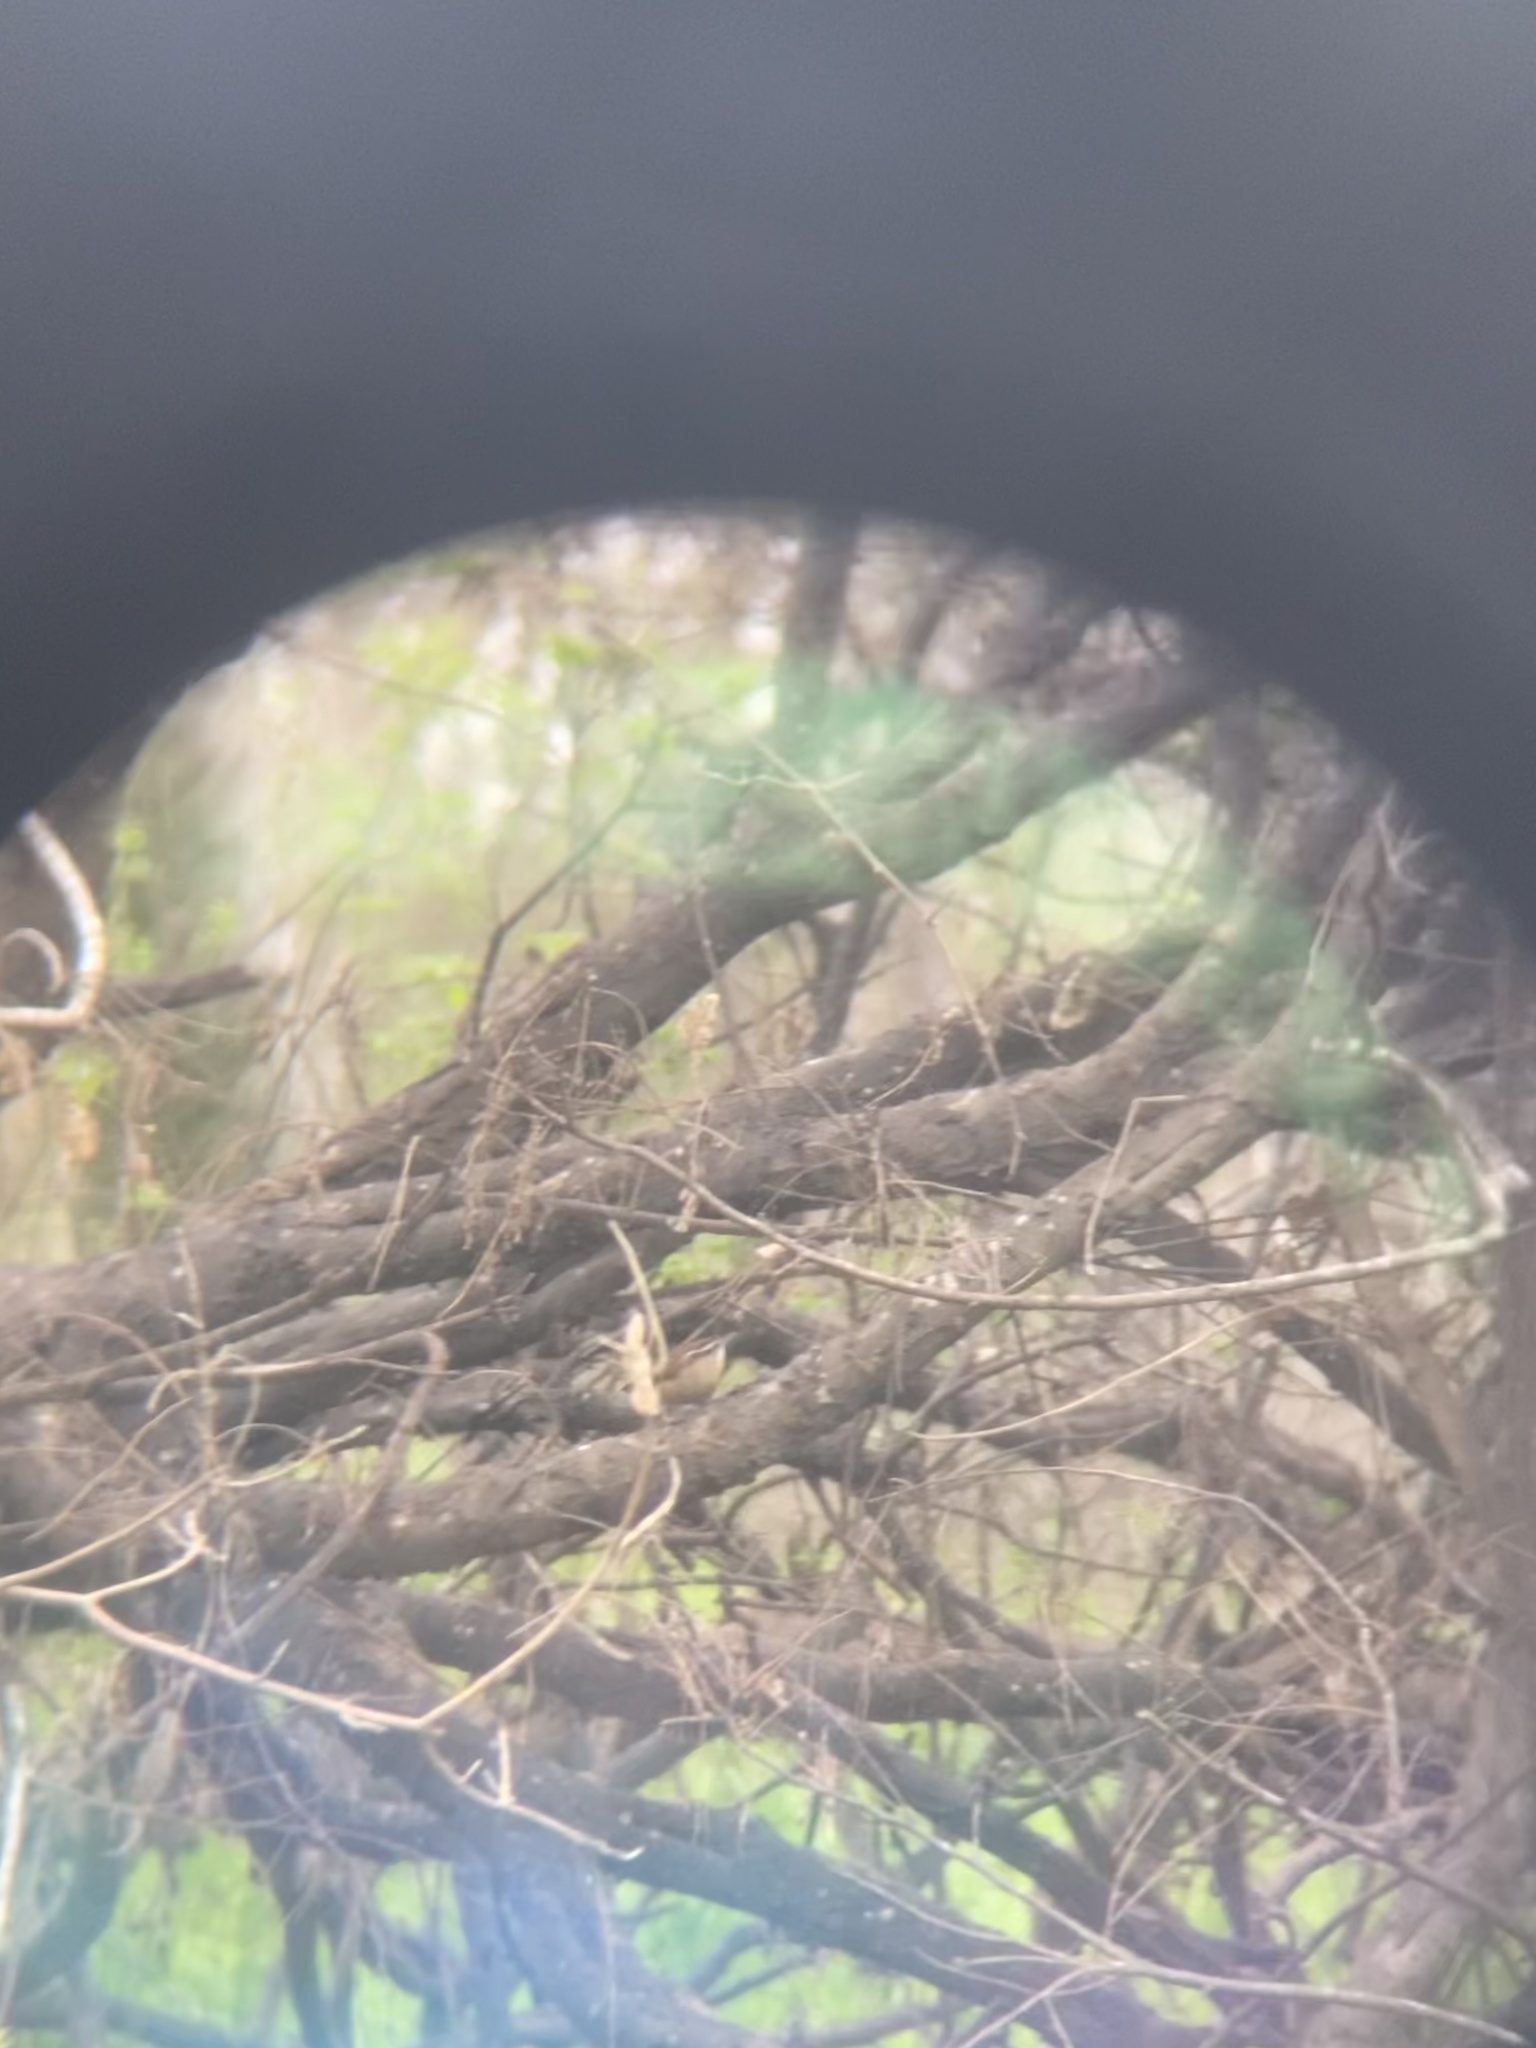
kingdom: Animalia
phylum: Chordata
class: Aves
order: Passeriformes
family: Troglodytidae
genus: Thryothorus
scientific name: Thryothorus ludovicianus
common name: Carolina wren
